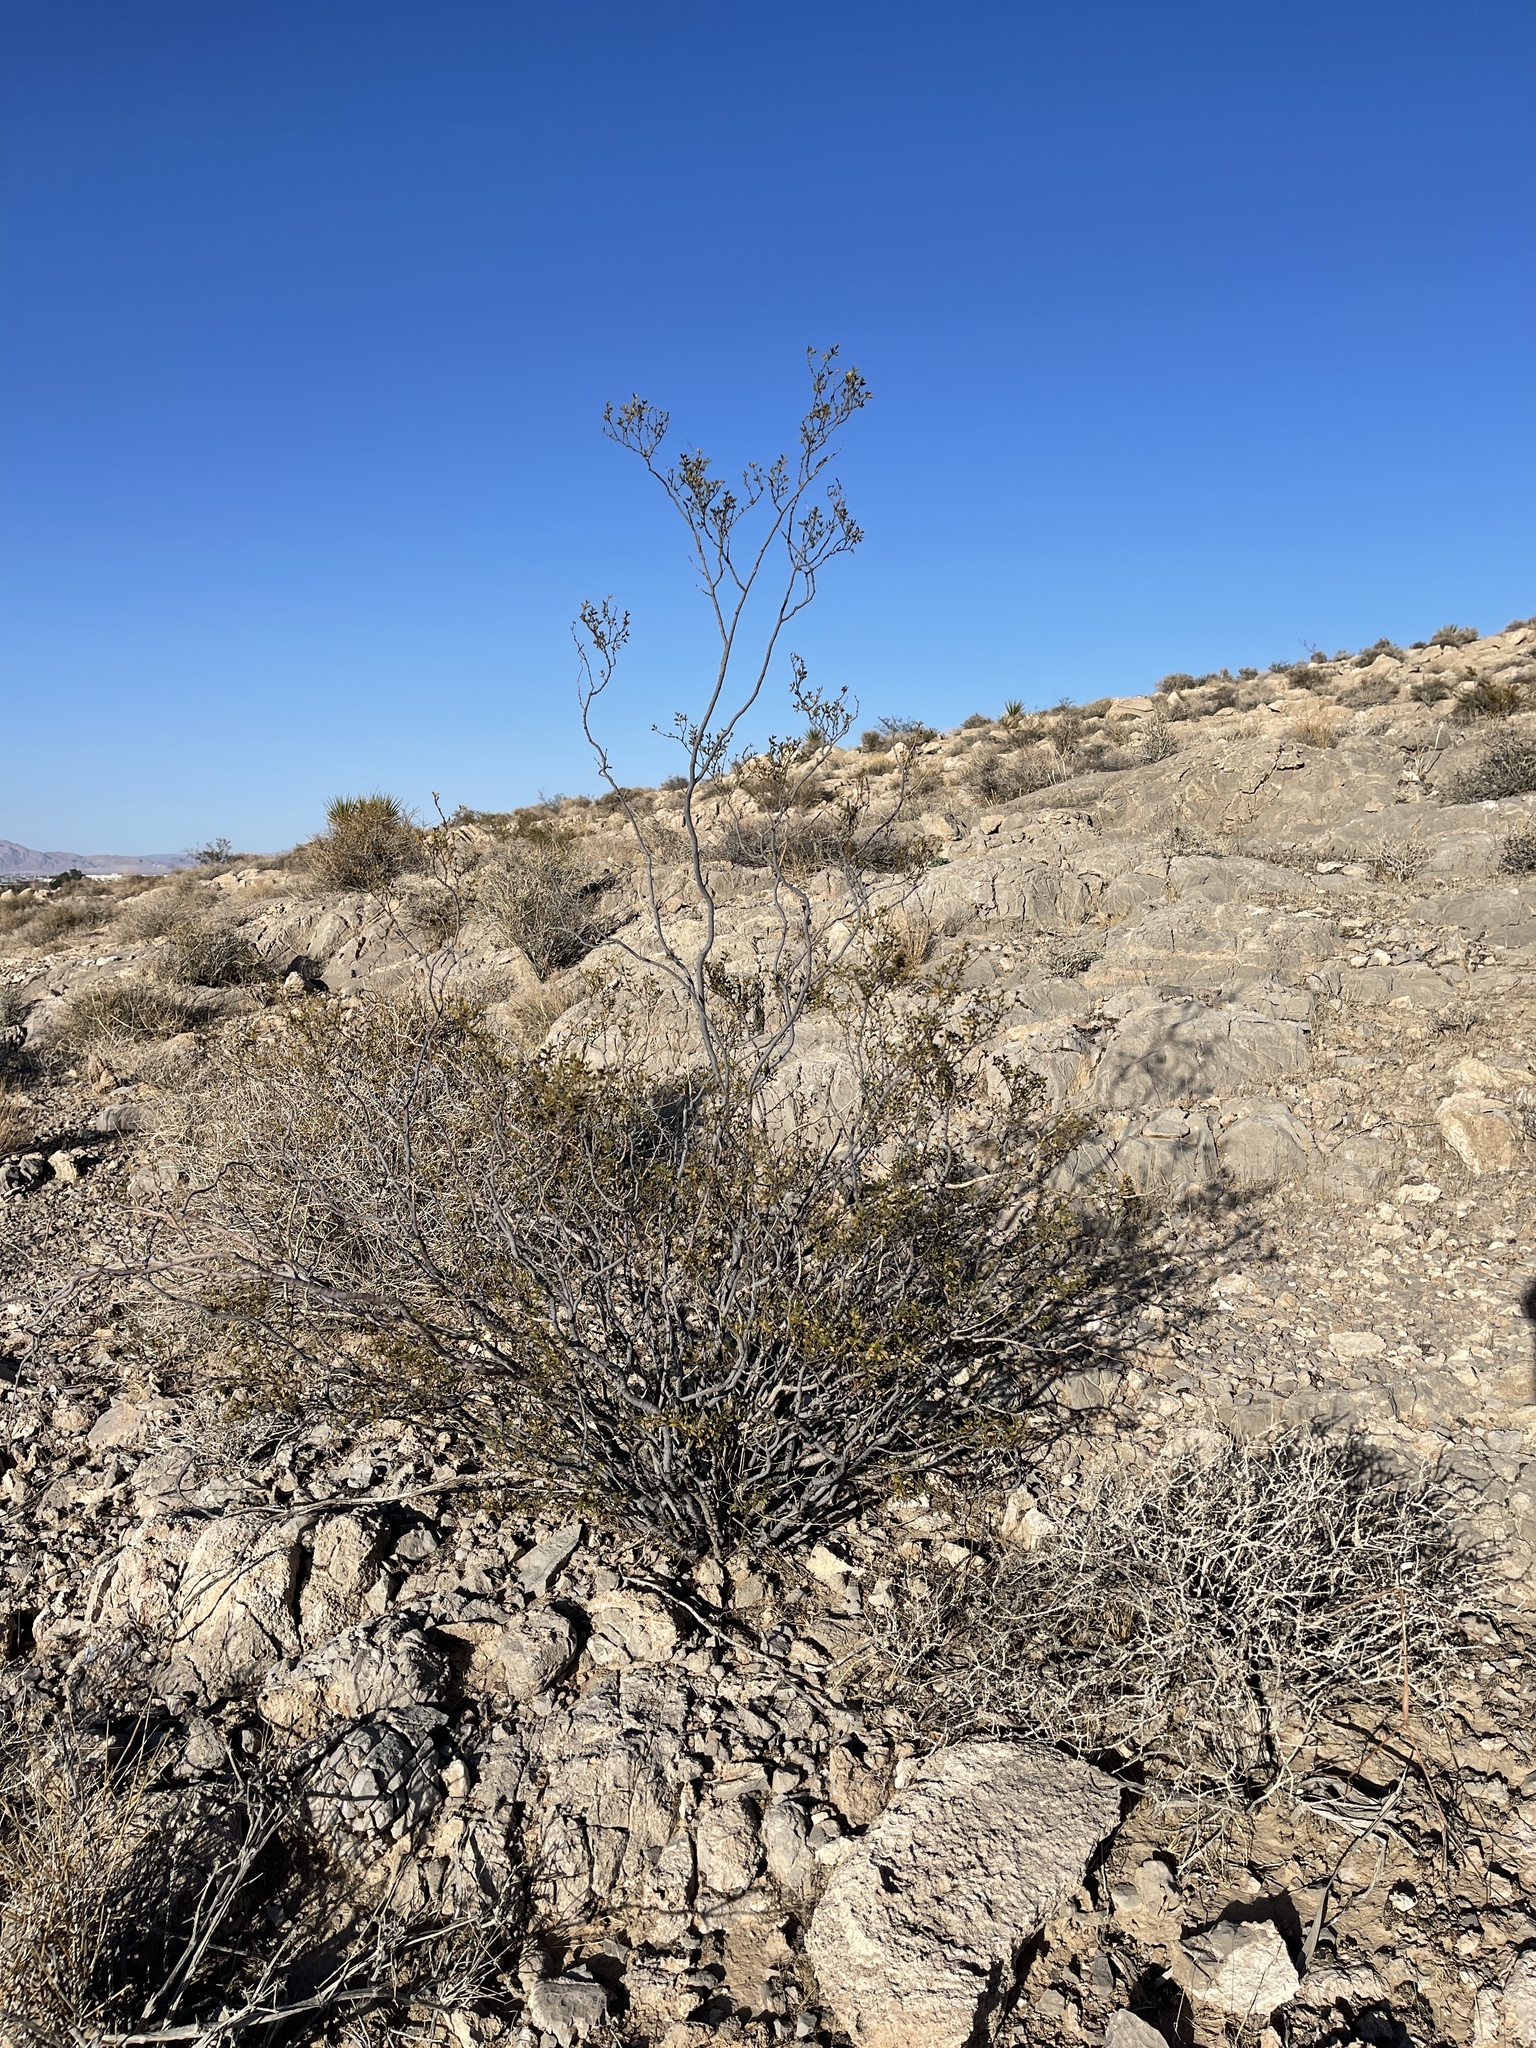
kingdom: Plantae
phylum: Tracheophyta
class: Magnoliopsida
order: Zygophyllales
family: Zygophyllaceae
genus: Larrea
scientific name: Larrea tridentata
